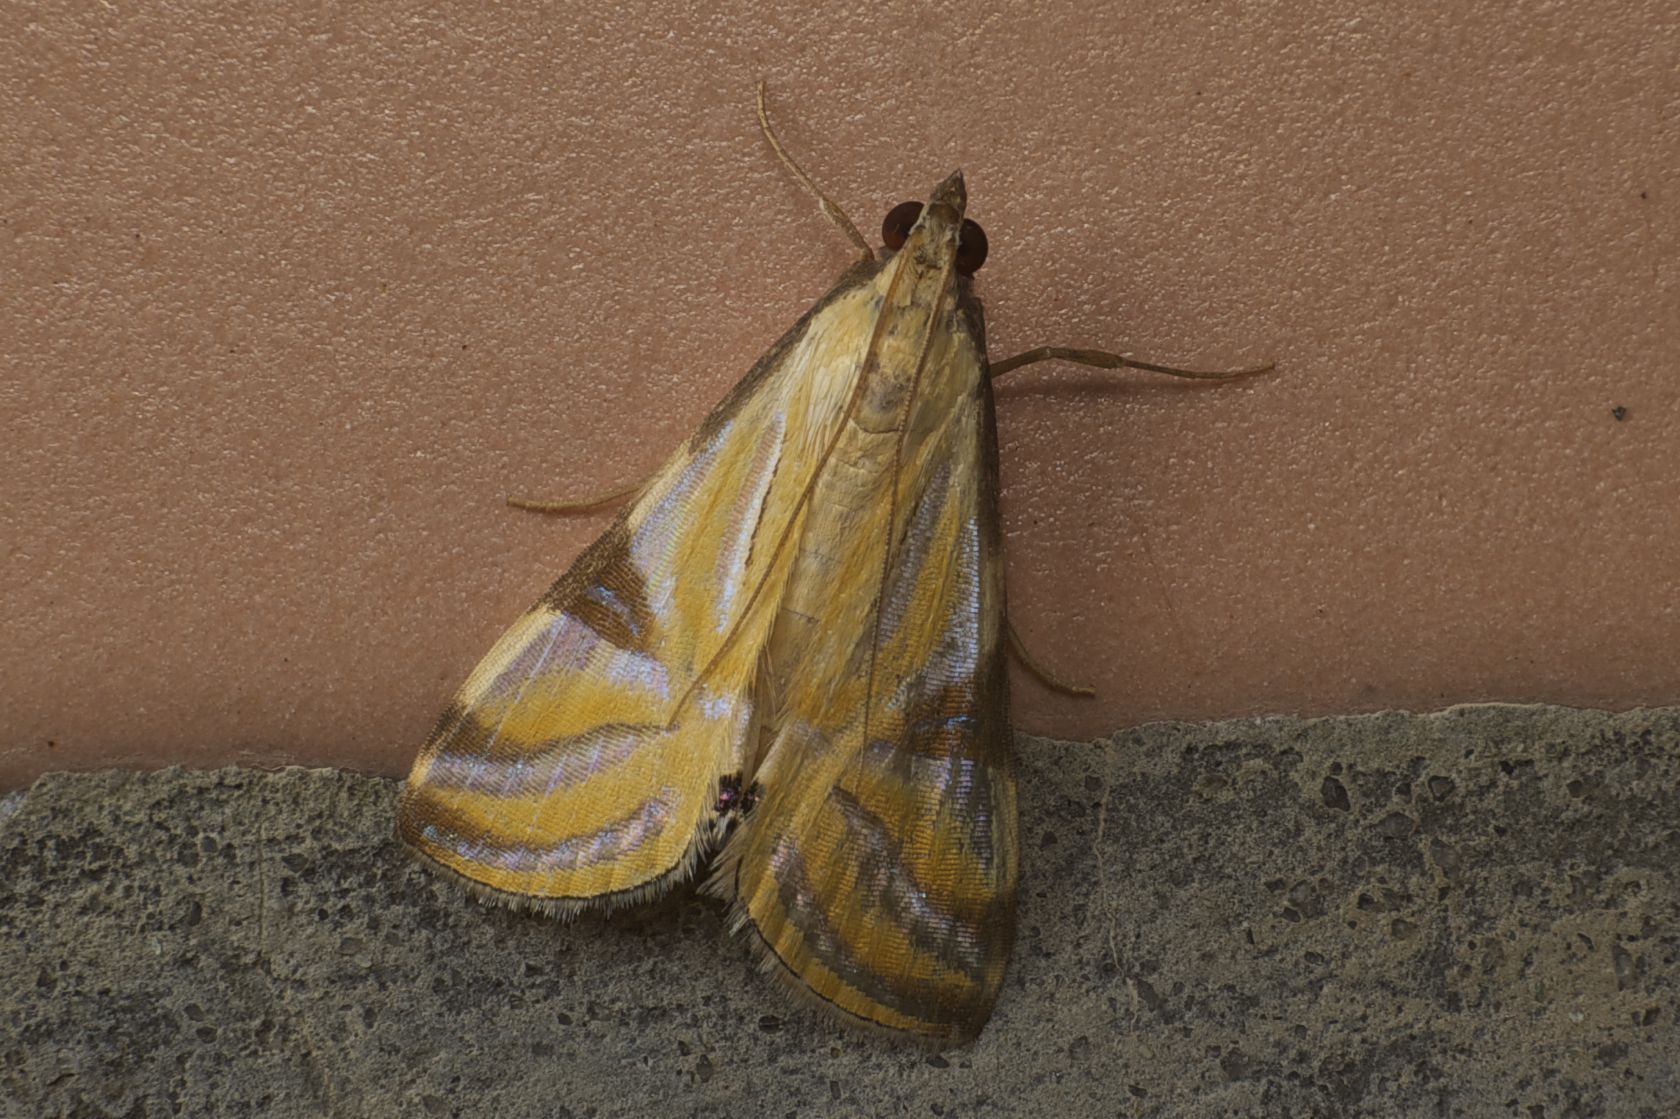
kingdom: Animalia
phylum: Arthropoda
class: Insecta
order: Lepidoptera
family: Crambidae
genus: Talanga
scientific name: Talanga sexpunctalis
